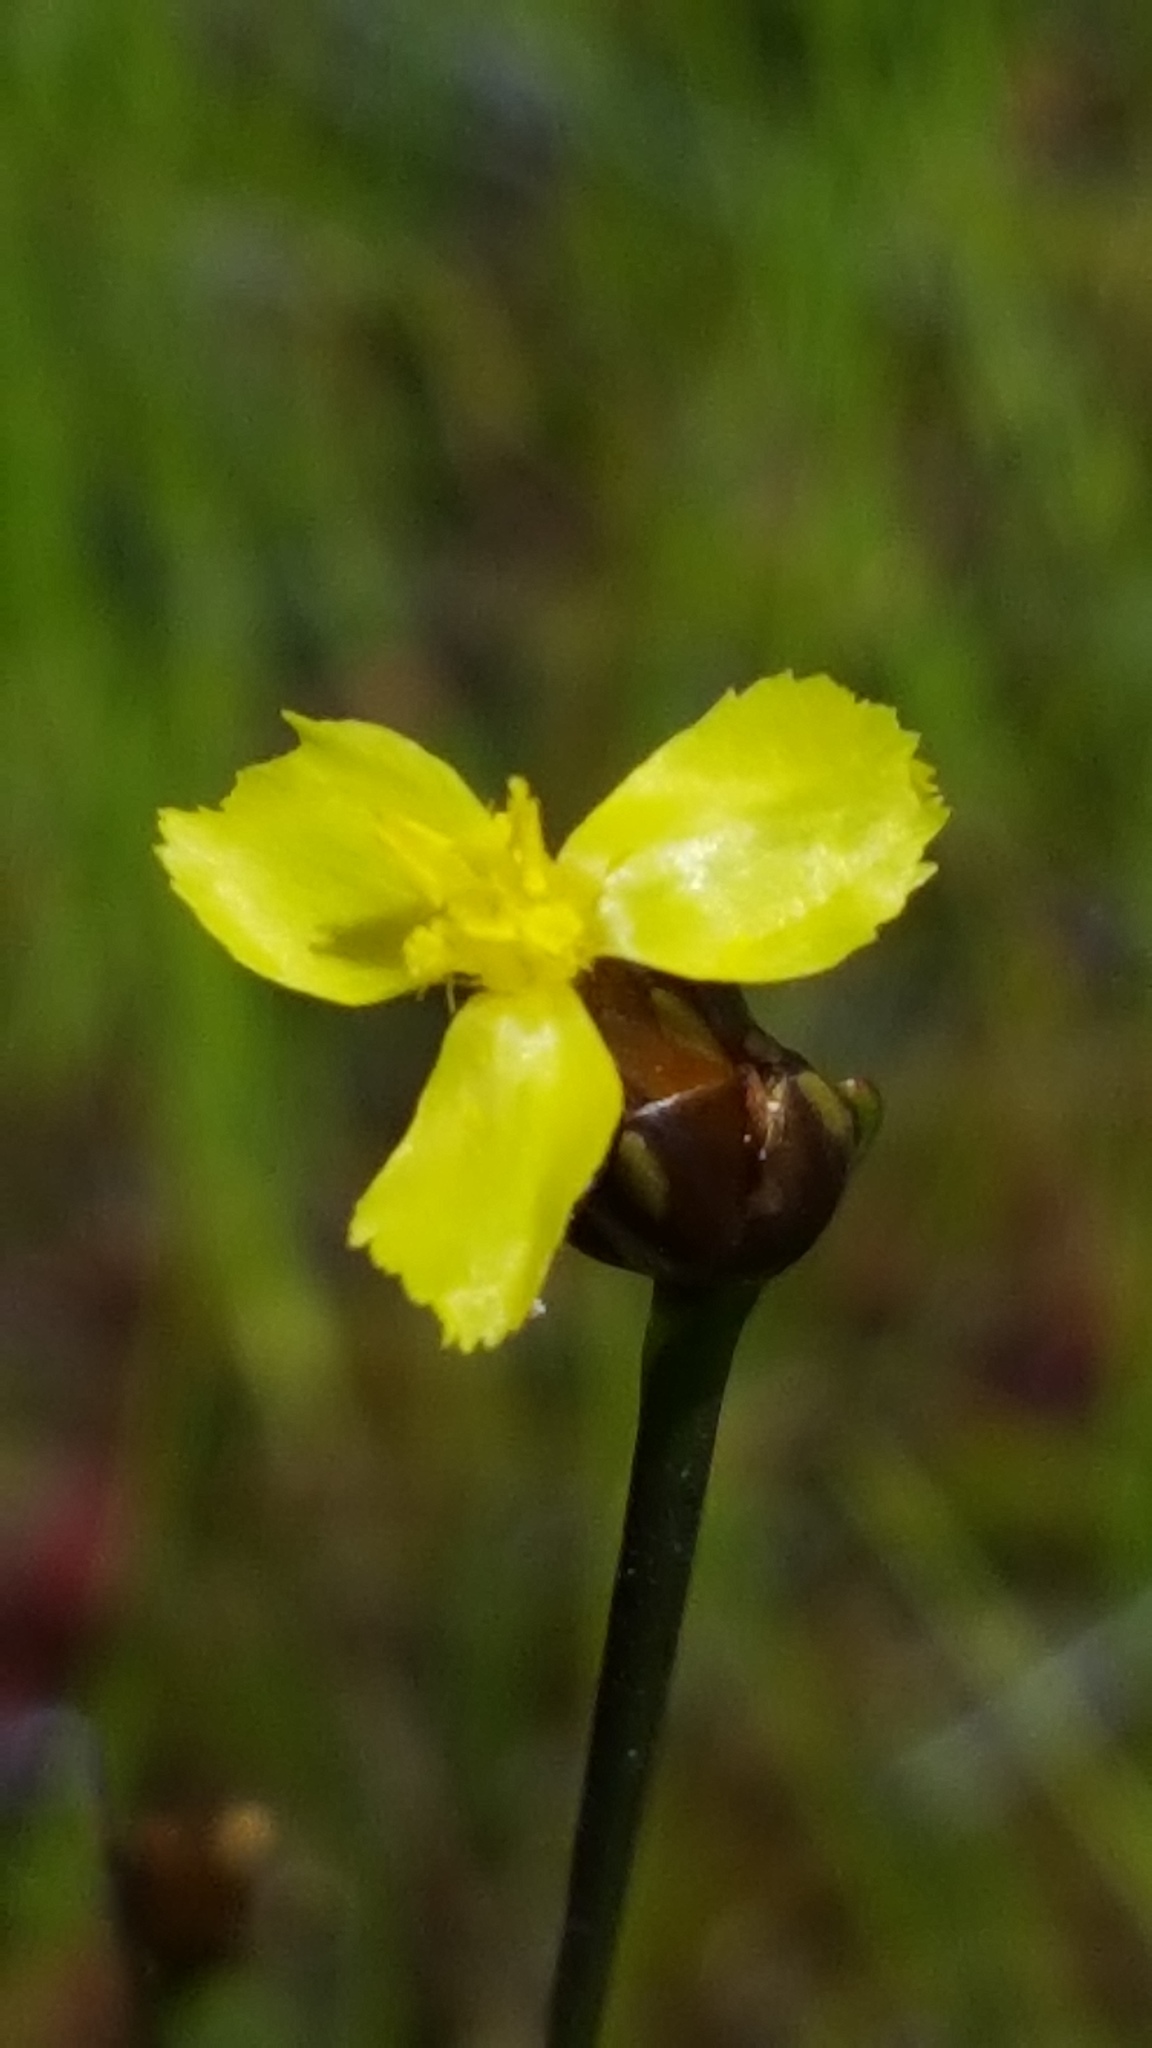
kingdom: Plantae
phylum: Tracheophyta
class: Liliopsida
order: Poales
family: Xyridaceae
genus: Xyris
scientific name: Xyris montana
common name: Northern yellow-eyed-grass
